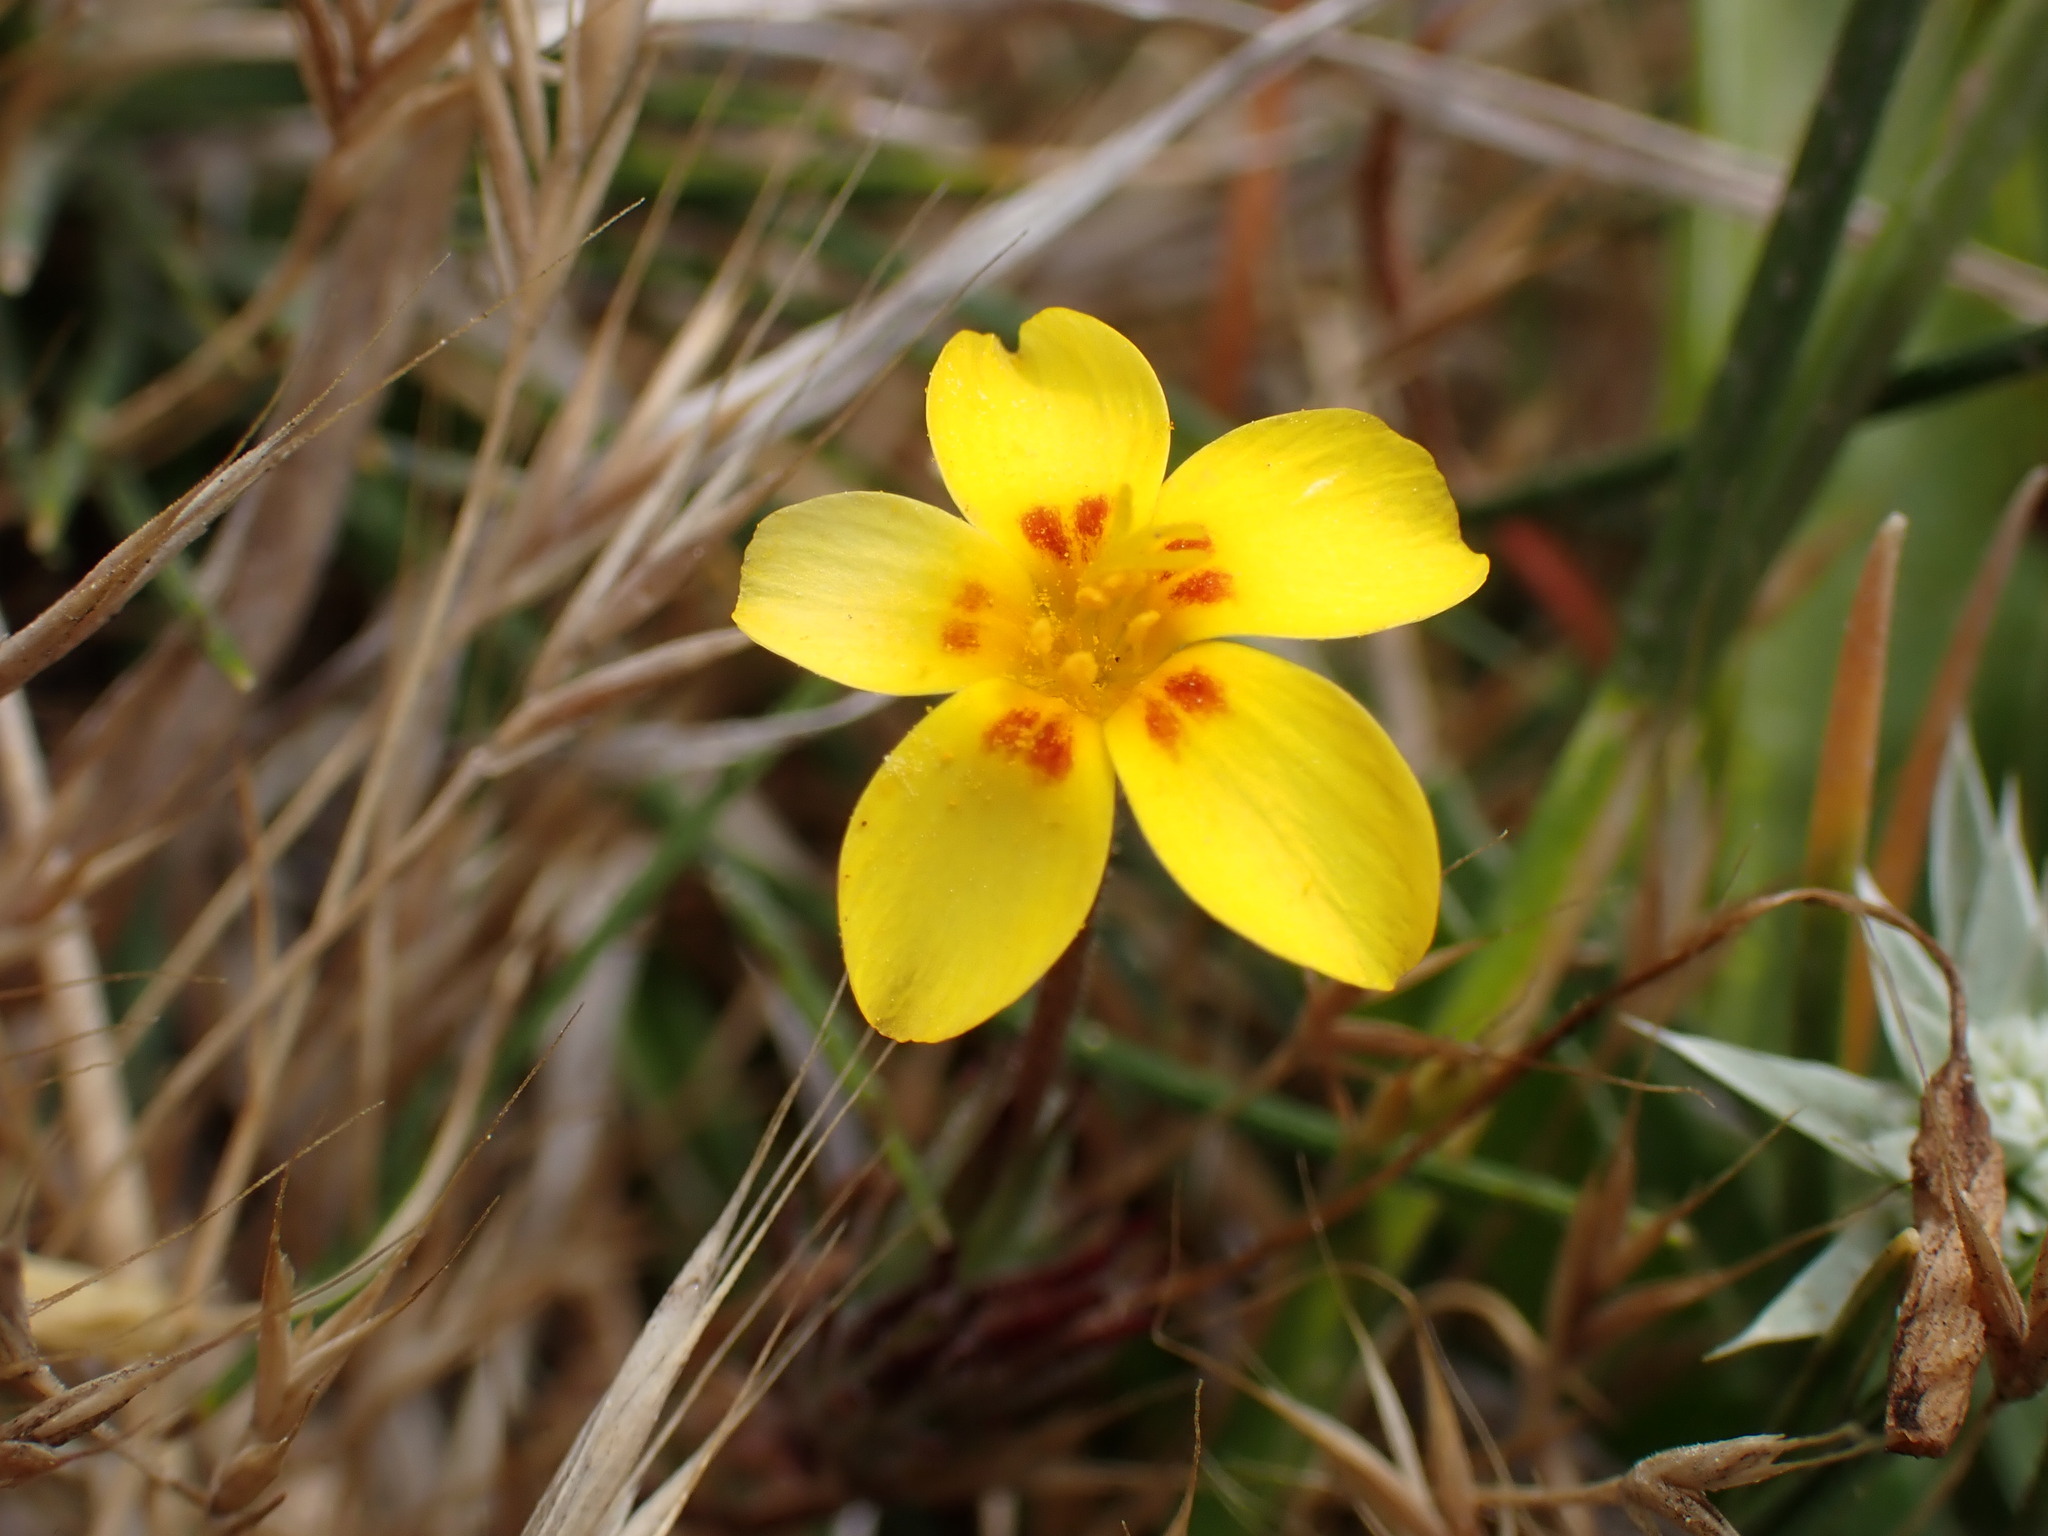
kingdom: Plantae
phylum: Tracheophyta
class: Magnoliopsida
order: Ericales
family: Polemoniaceae
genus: Leptosiphon
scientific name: Leptosiphon croceus
